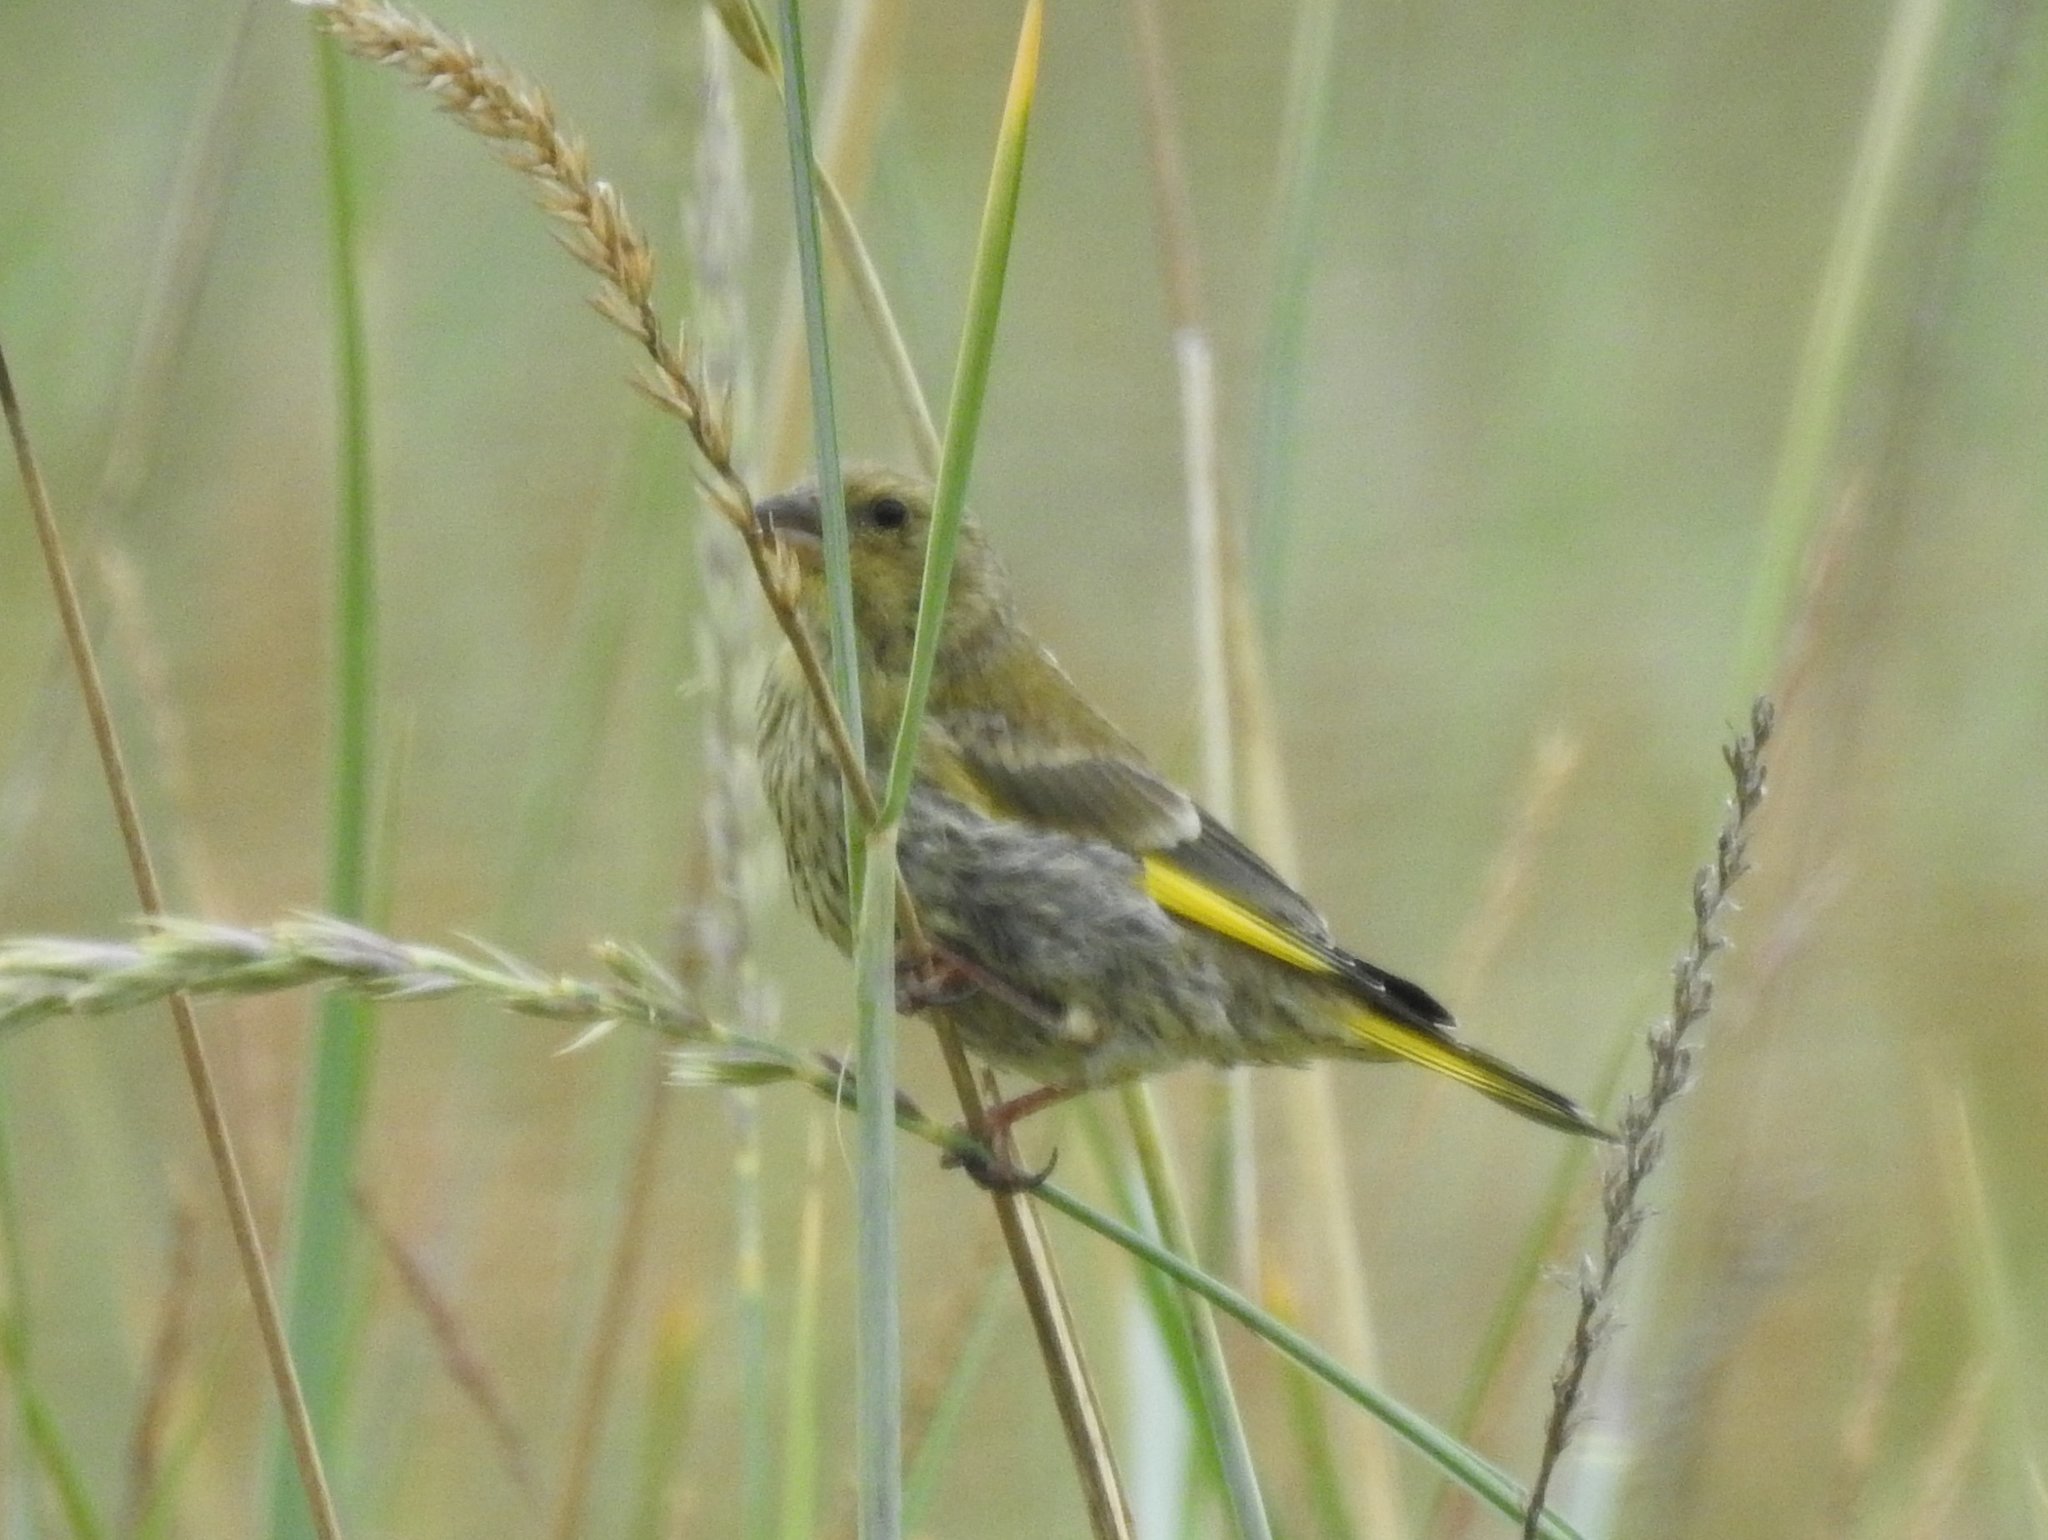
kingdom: Plantae
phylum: Tracheophyta
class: Liliopsida
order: Poales
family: Poaceae
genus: Chloris
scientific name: Chloris chloris
